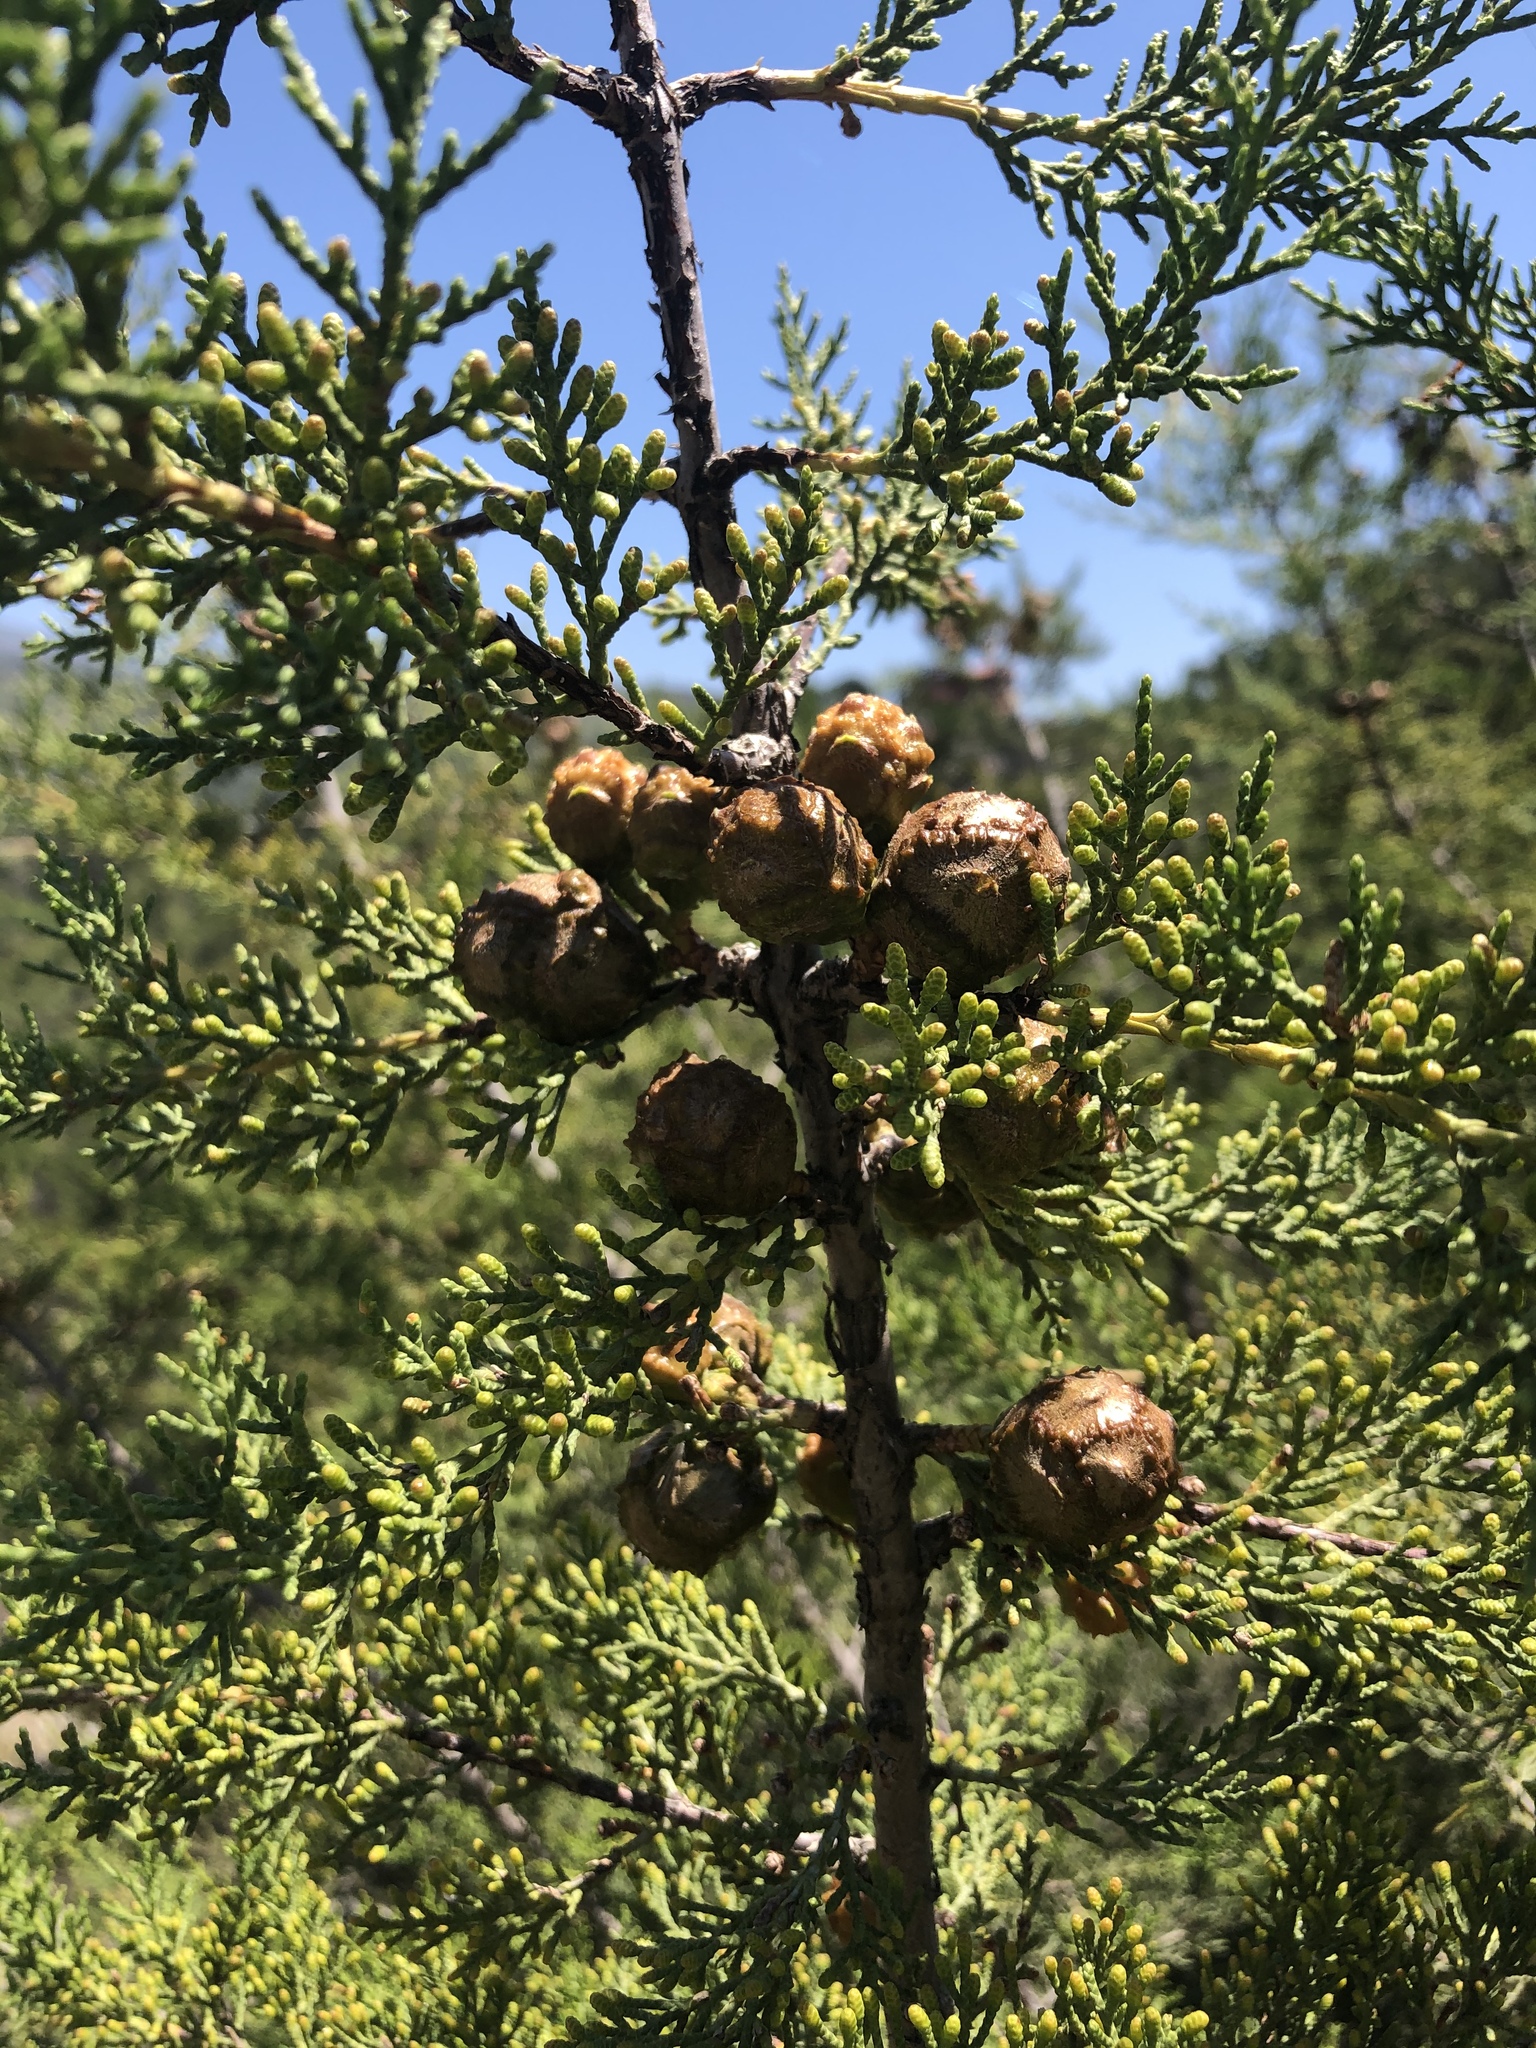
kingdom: Plantae
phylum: Tracheophyta
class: Pinopsida
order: Pinales
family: Cupressaceae
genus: Cupressus
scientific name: Cupressus guadalupensis
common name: Forbes cypress
